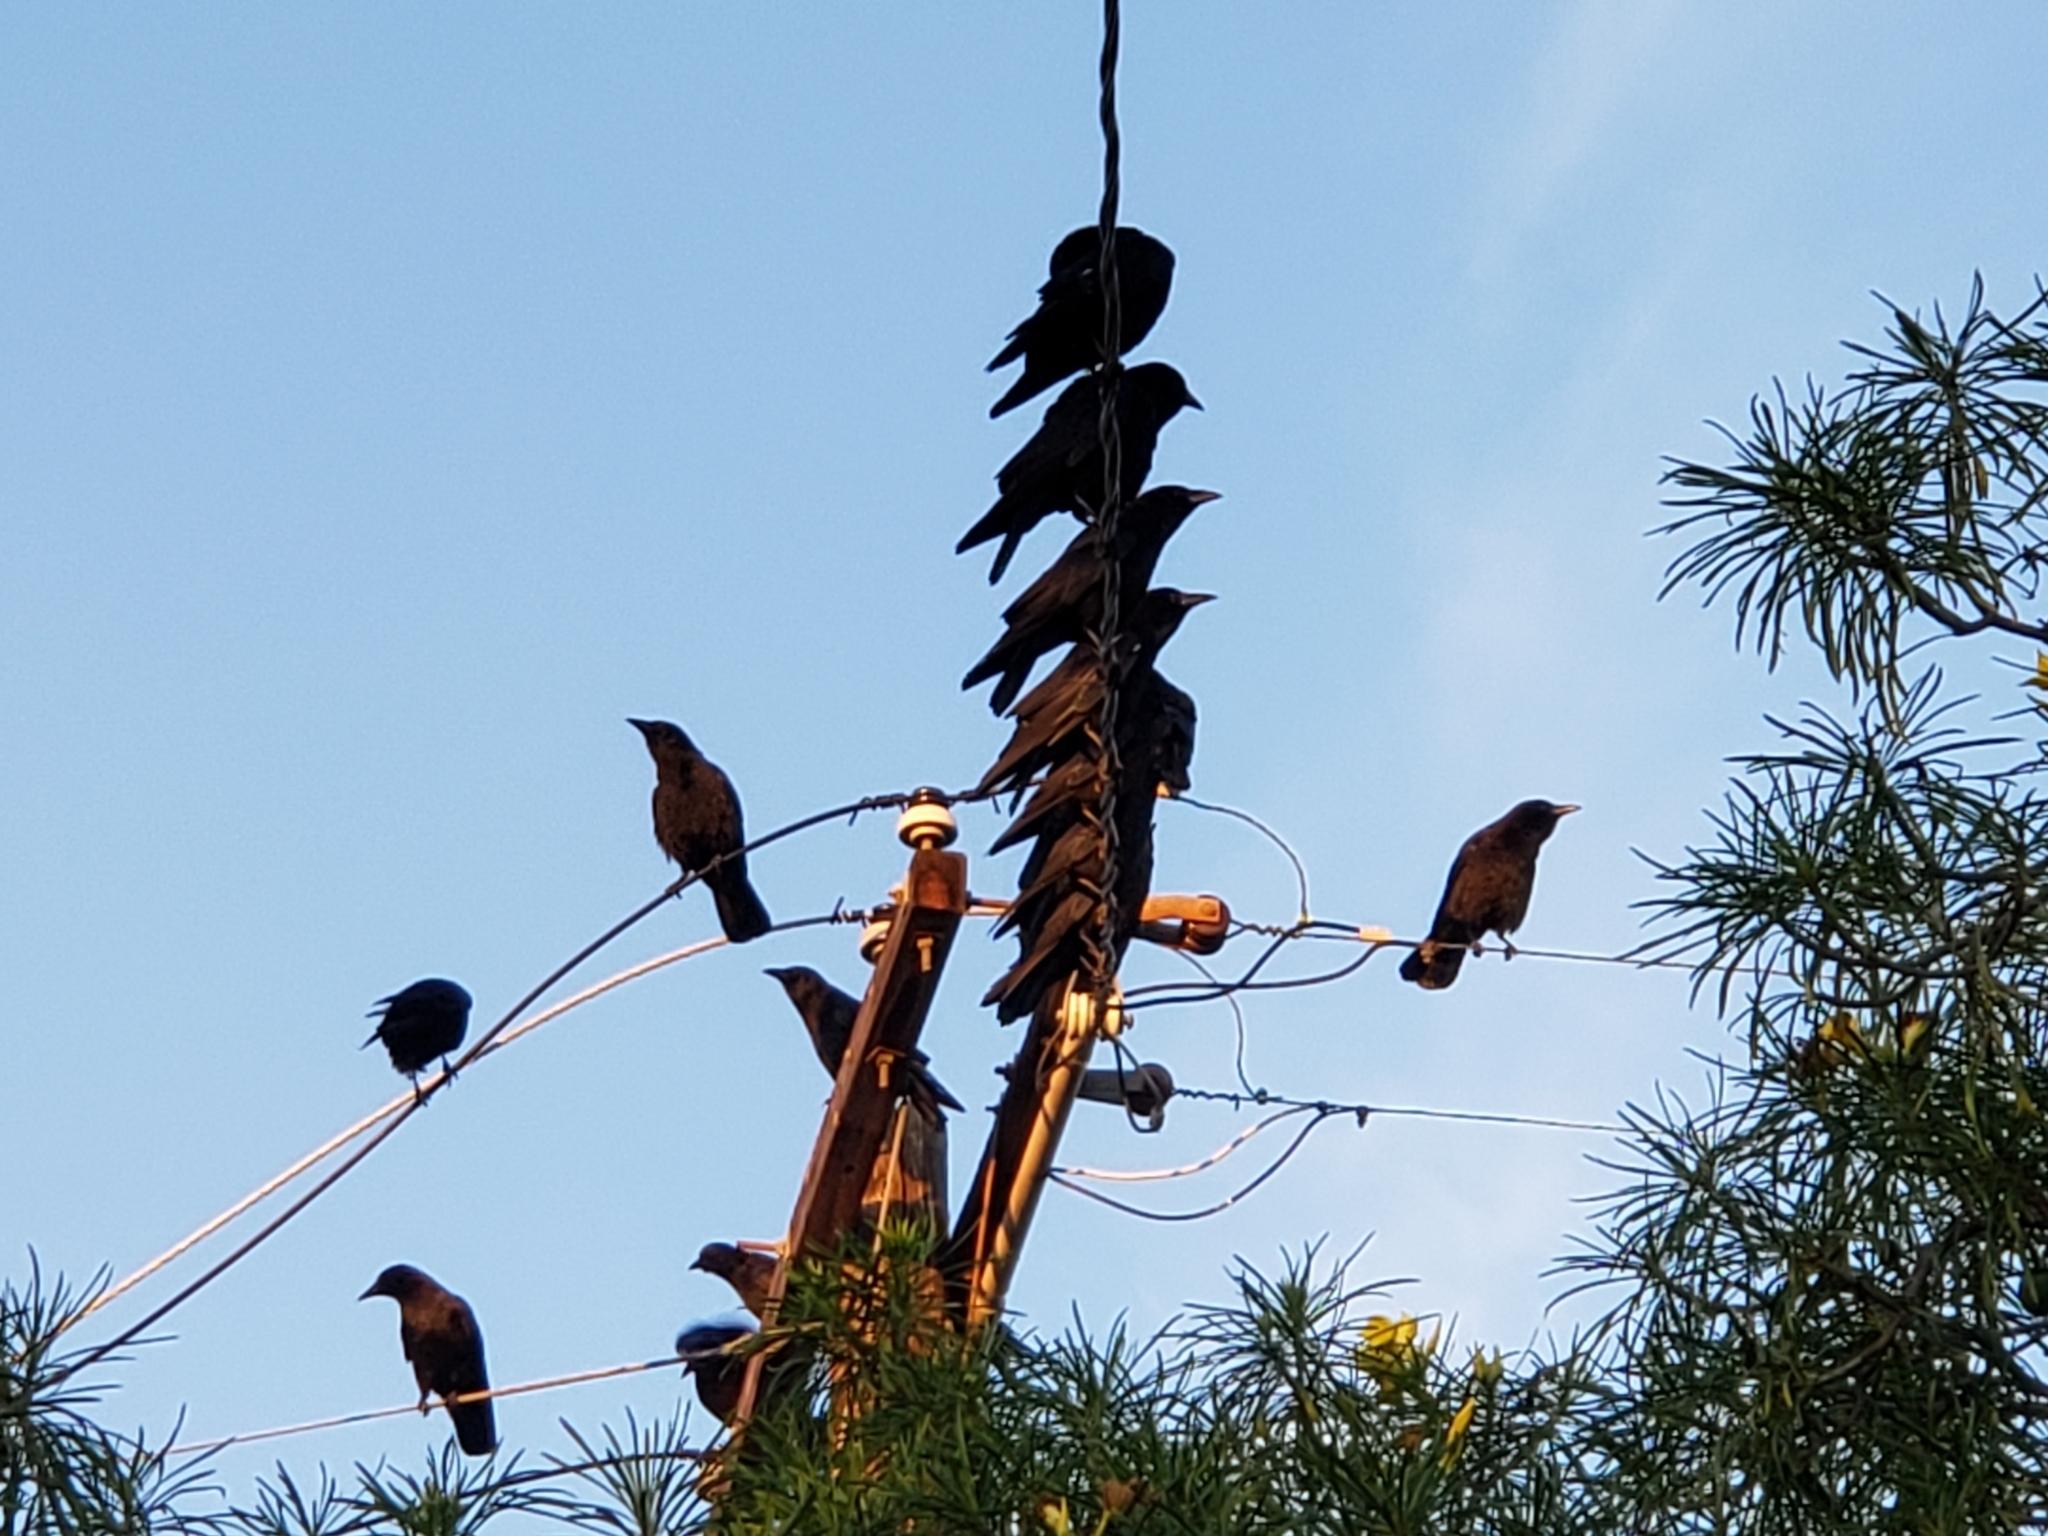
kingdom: Animalia
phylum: Chordata
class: Aves
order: Passeriformes
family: Corvidae
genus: Corvus
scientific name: Corvus brachyrhynchos
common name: American crow
